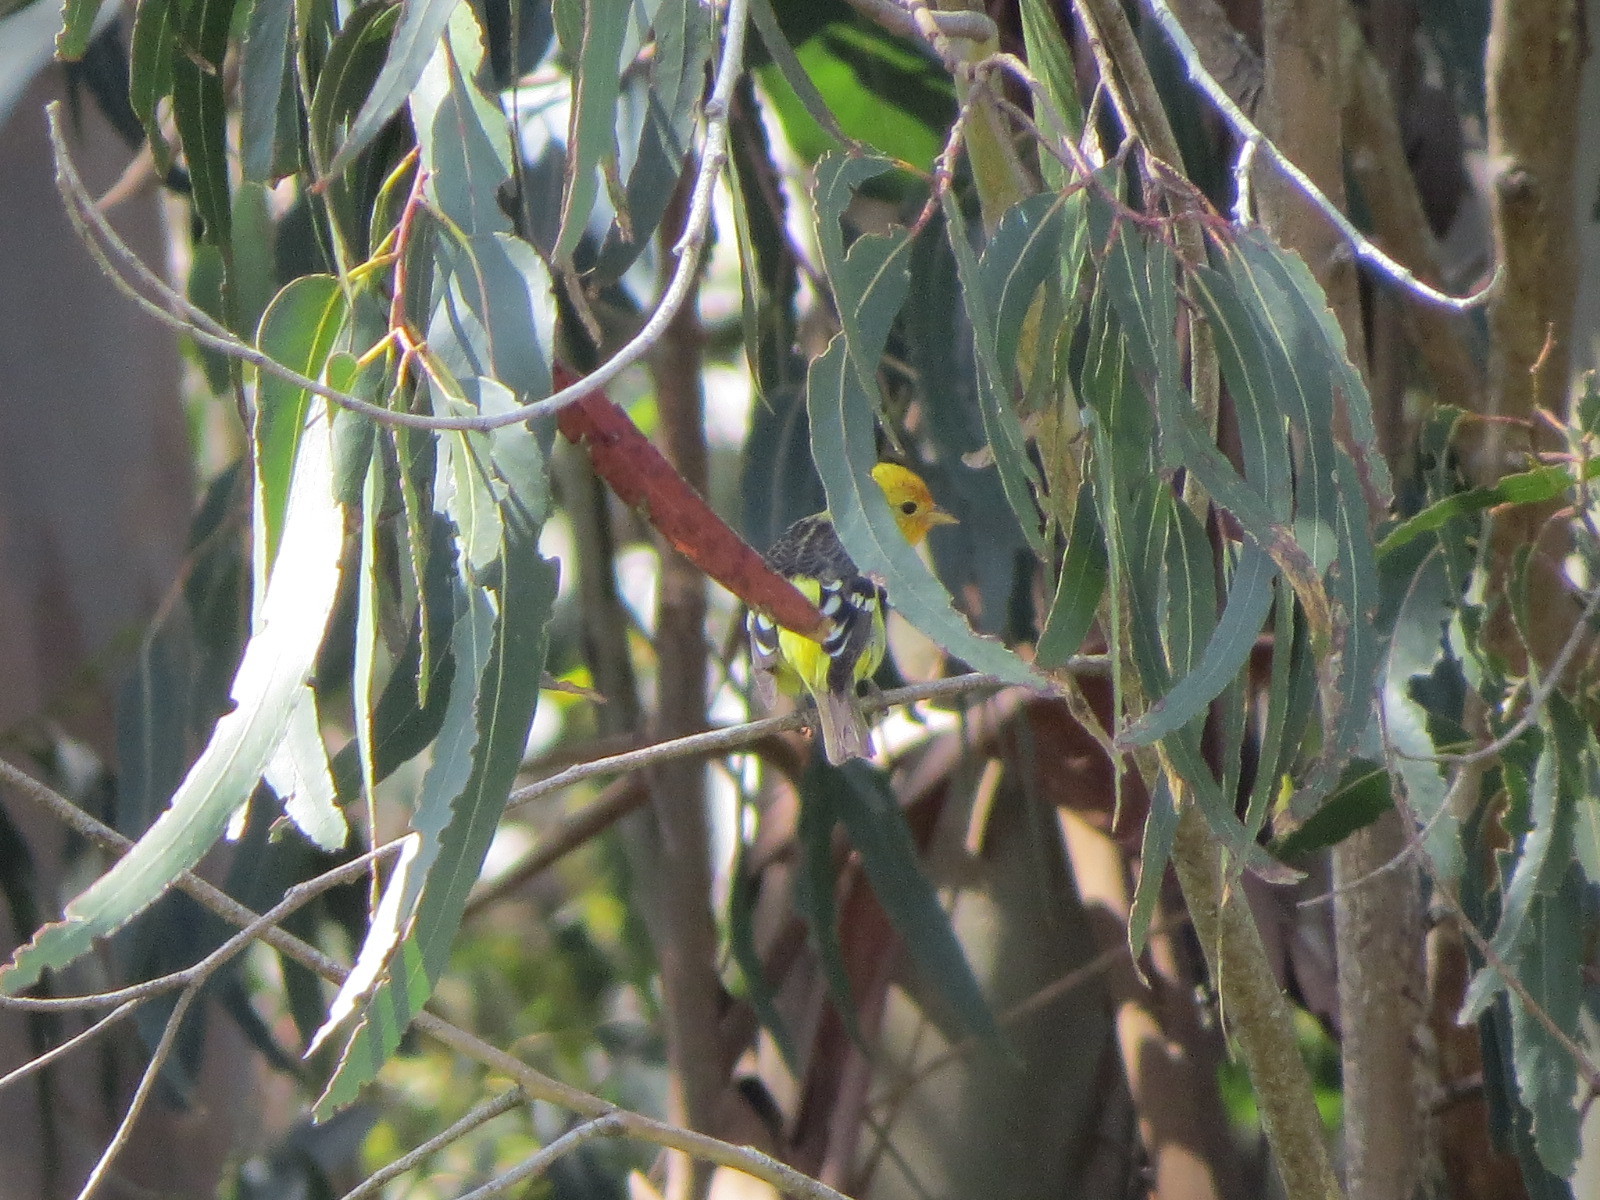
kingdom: Animalia
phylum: Chordata
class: Aves
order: Passeriformes
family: Cardinalidae
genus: Piranga
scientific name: Piranga ludoviciana
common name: Western tanager
